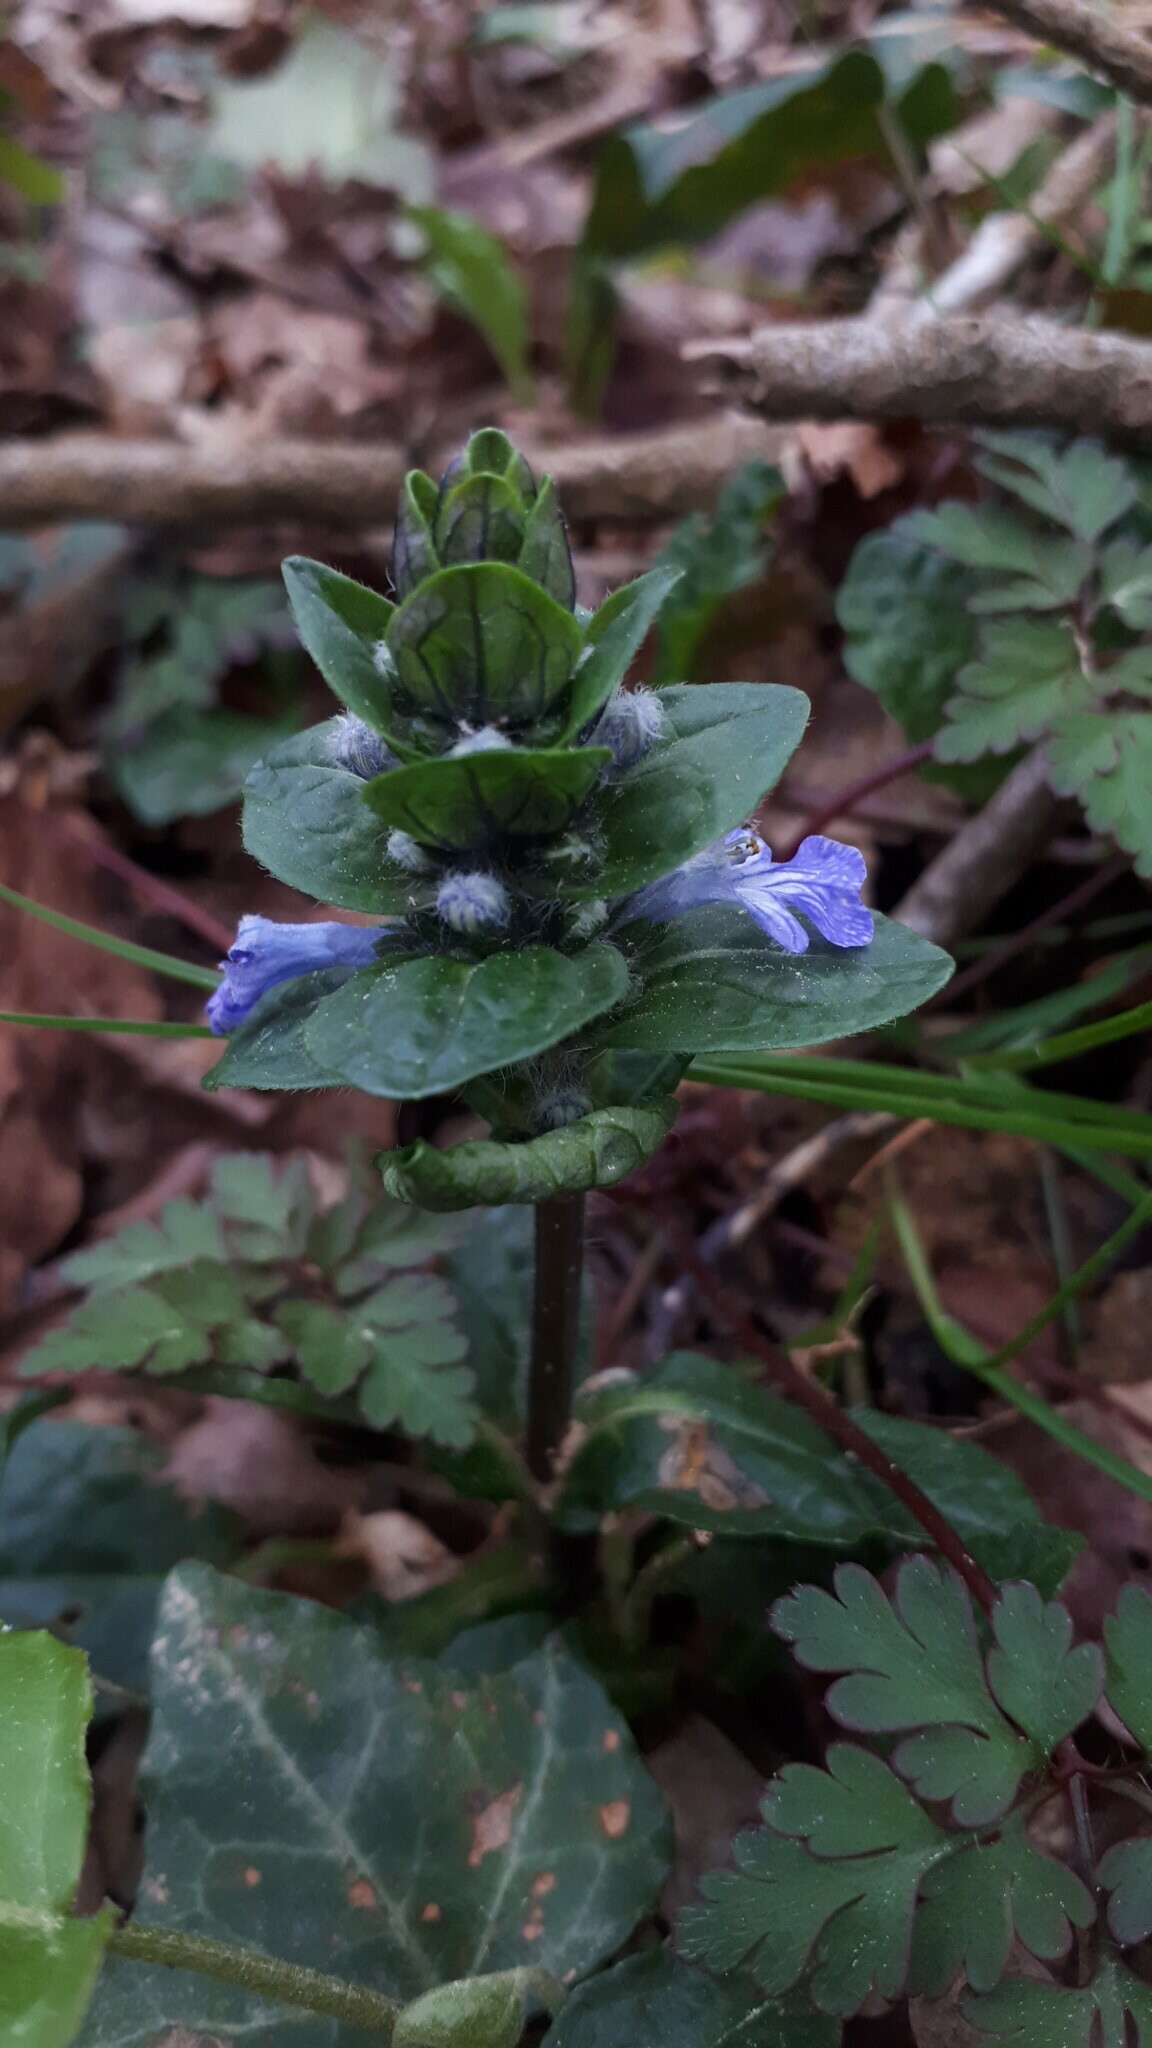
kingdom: Plantae
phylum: Tracheophyta
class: Magnoliopsida
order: Lamiales
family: Lamiaceae
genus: Ajuga
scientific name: Ajuga reptans
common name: Bugle
